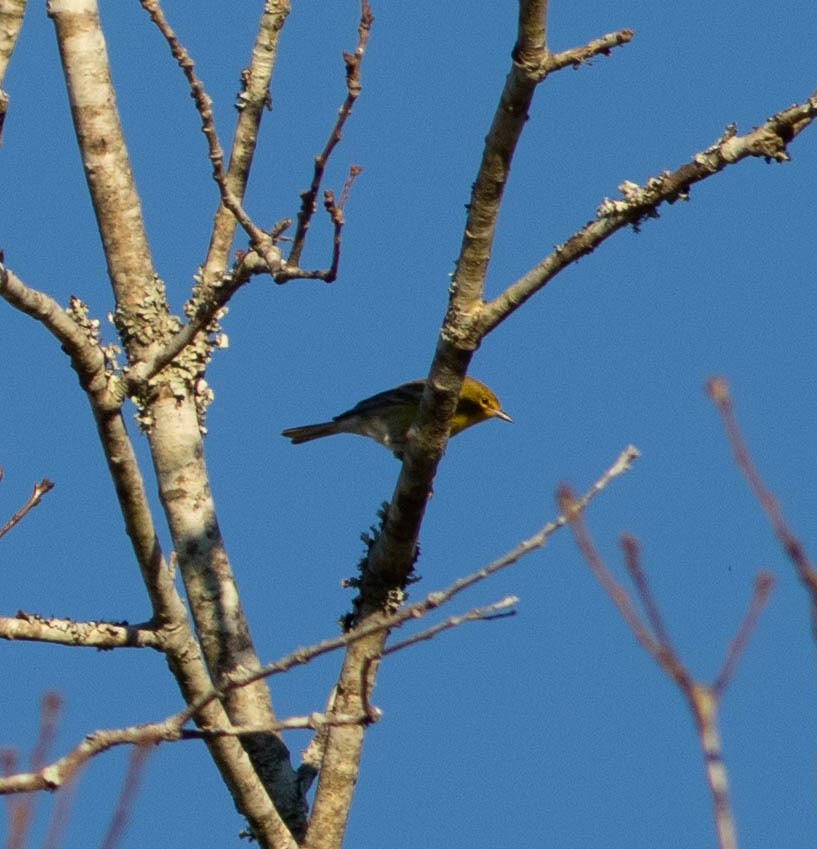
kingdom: Animalia
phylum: Chordata
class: Aves
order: Passeriformes
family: Parulidae
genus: Setophaga
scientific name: Setophaga pinus
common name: Pine warbler
